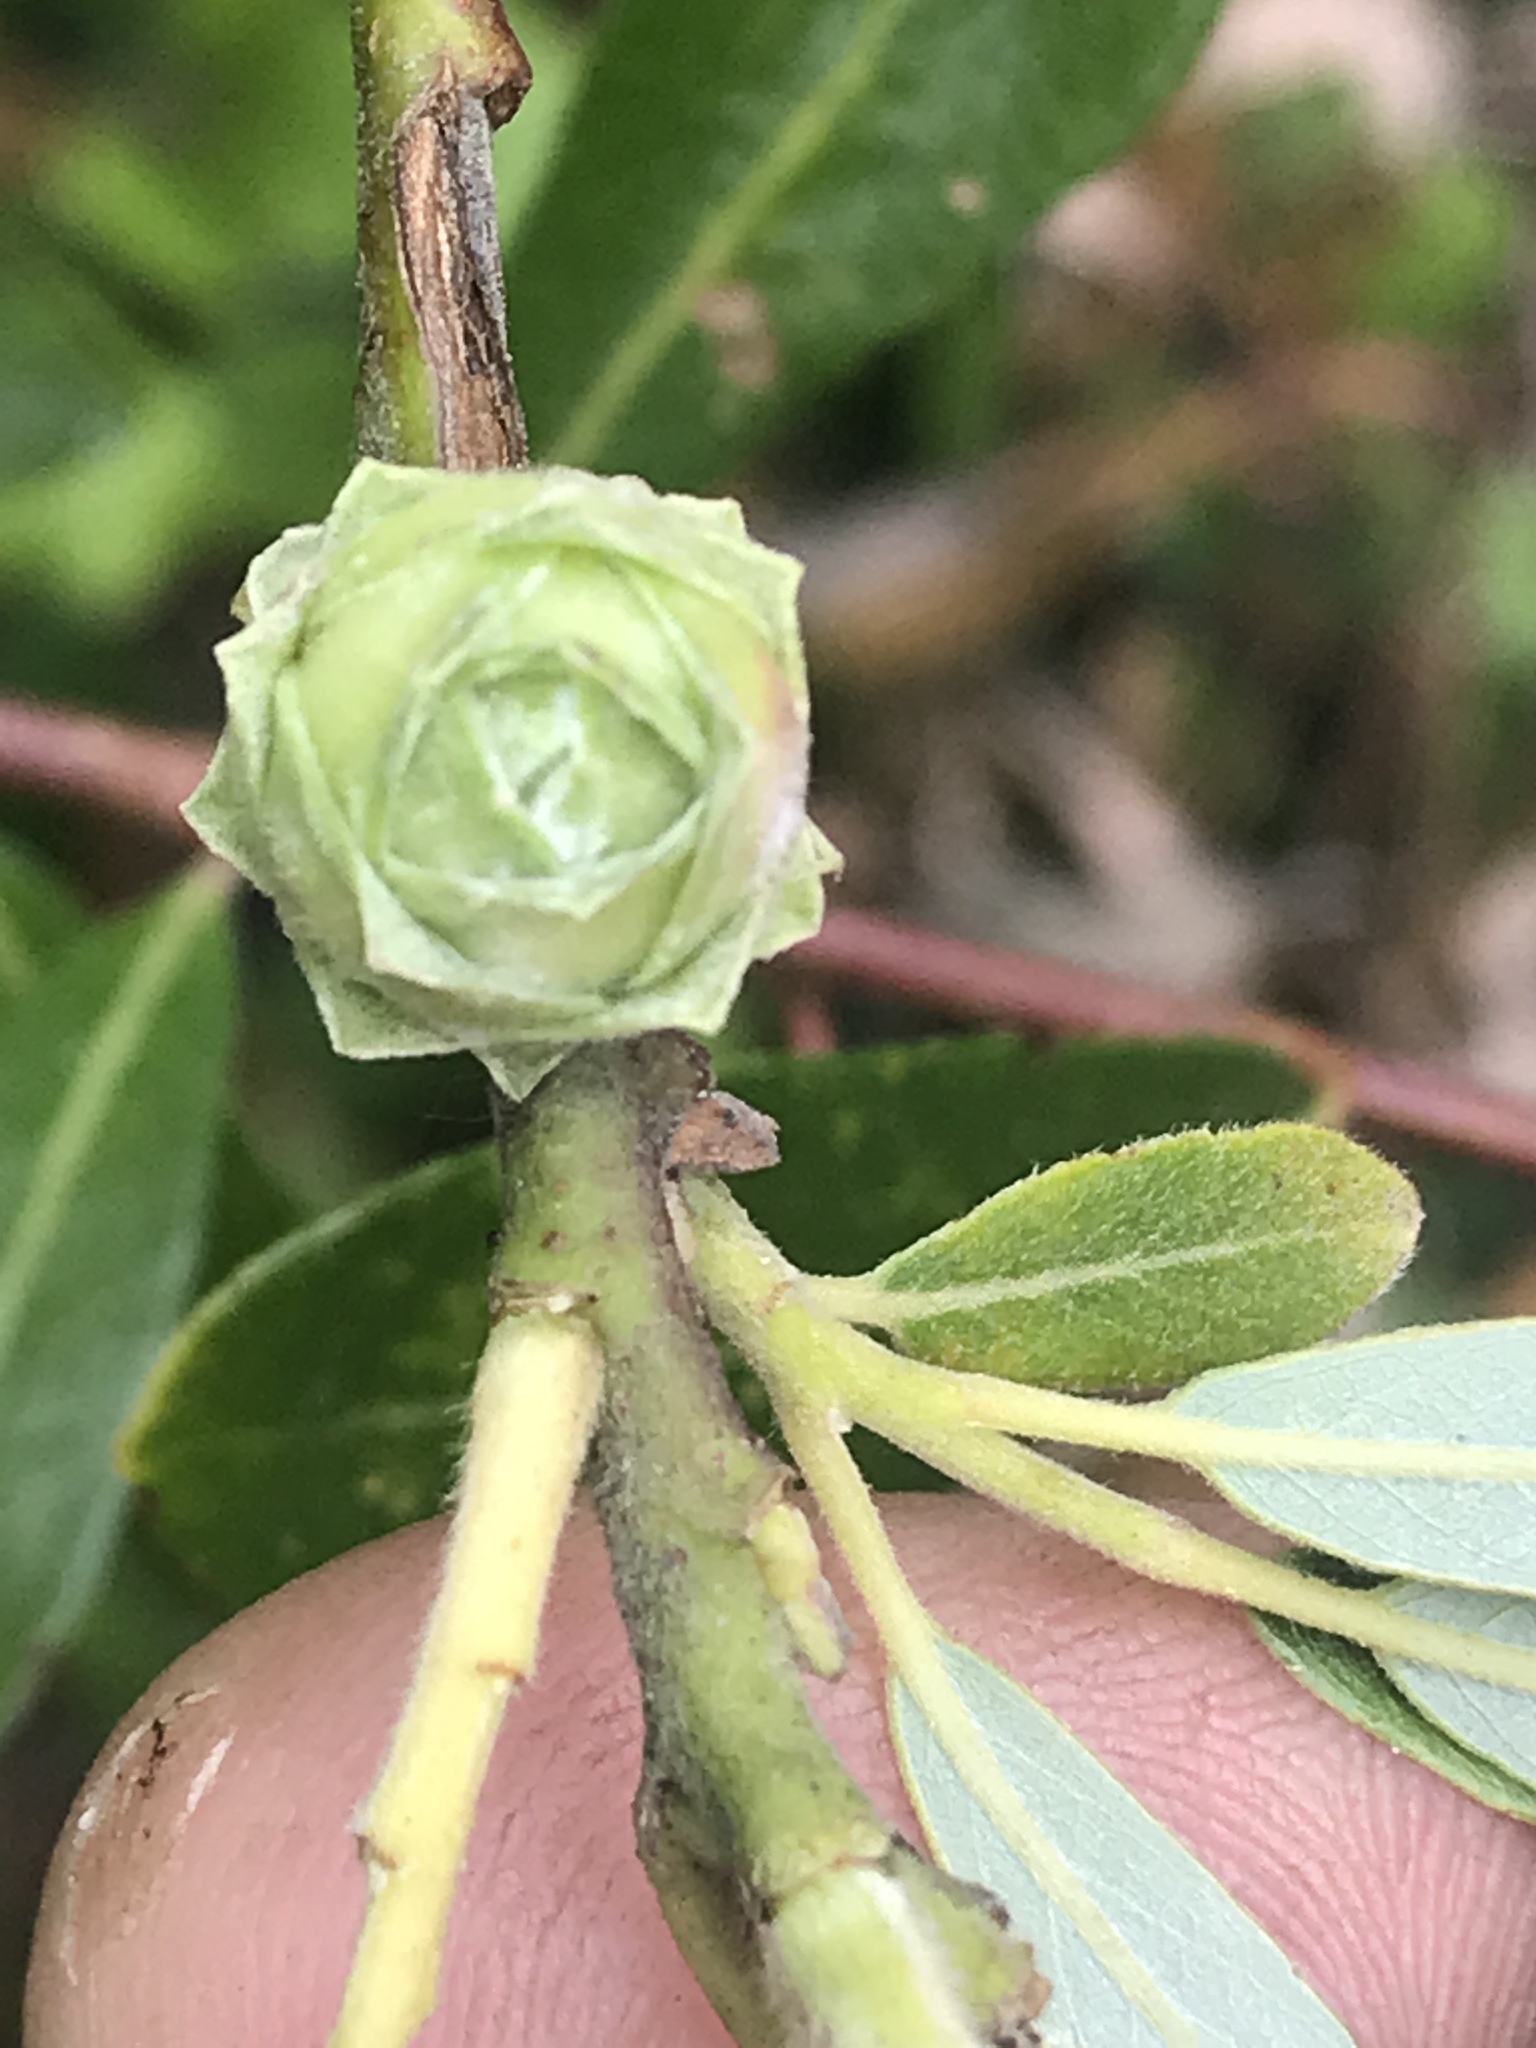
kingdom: Animalia
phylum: Arthropoda
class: Insecta
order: Diptera
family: Cecidomyiidae
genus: Rabdophaga
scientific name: Rabdophaga strobiloides
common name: Willow pinecone gall midge
